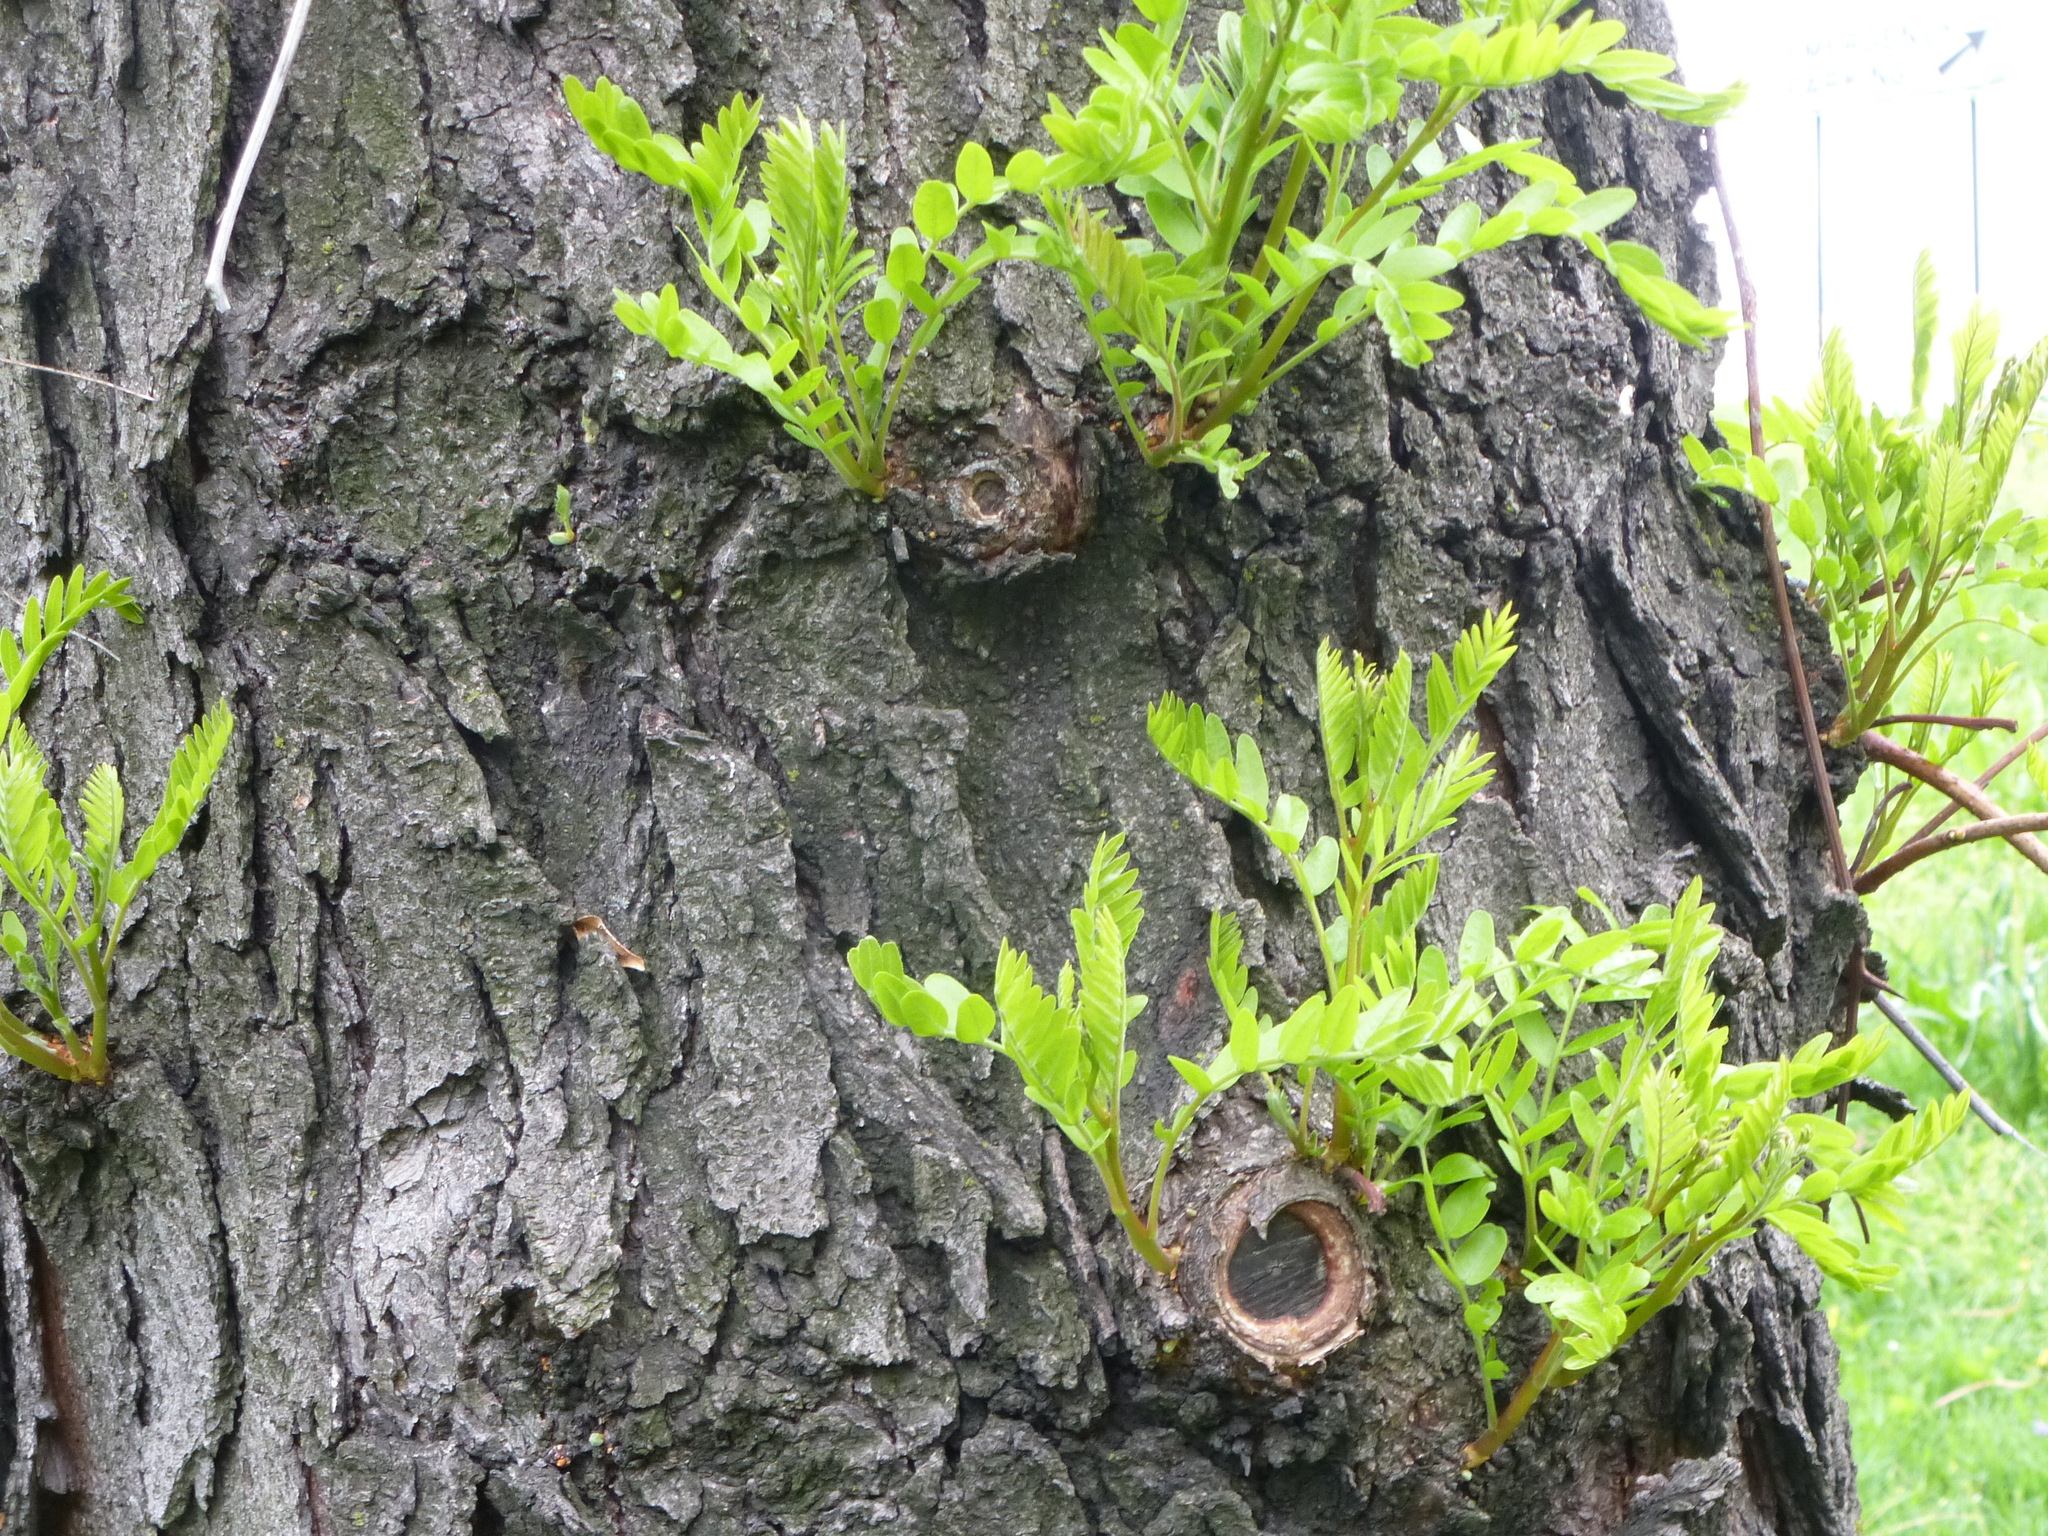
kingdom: Plantae
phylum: Tracheophyta
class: Magnoliopsida
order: Fabales
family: Fabaceae
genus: Gleditsia
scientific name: Gleditsia triacanthos
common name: Common honeylocust
